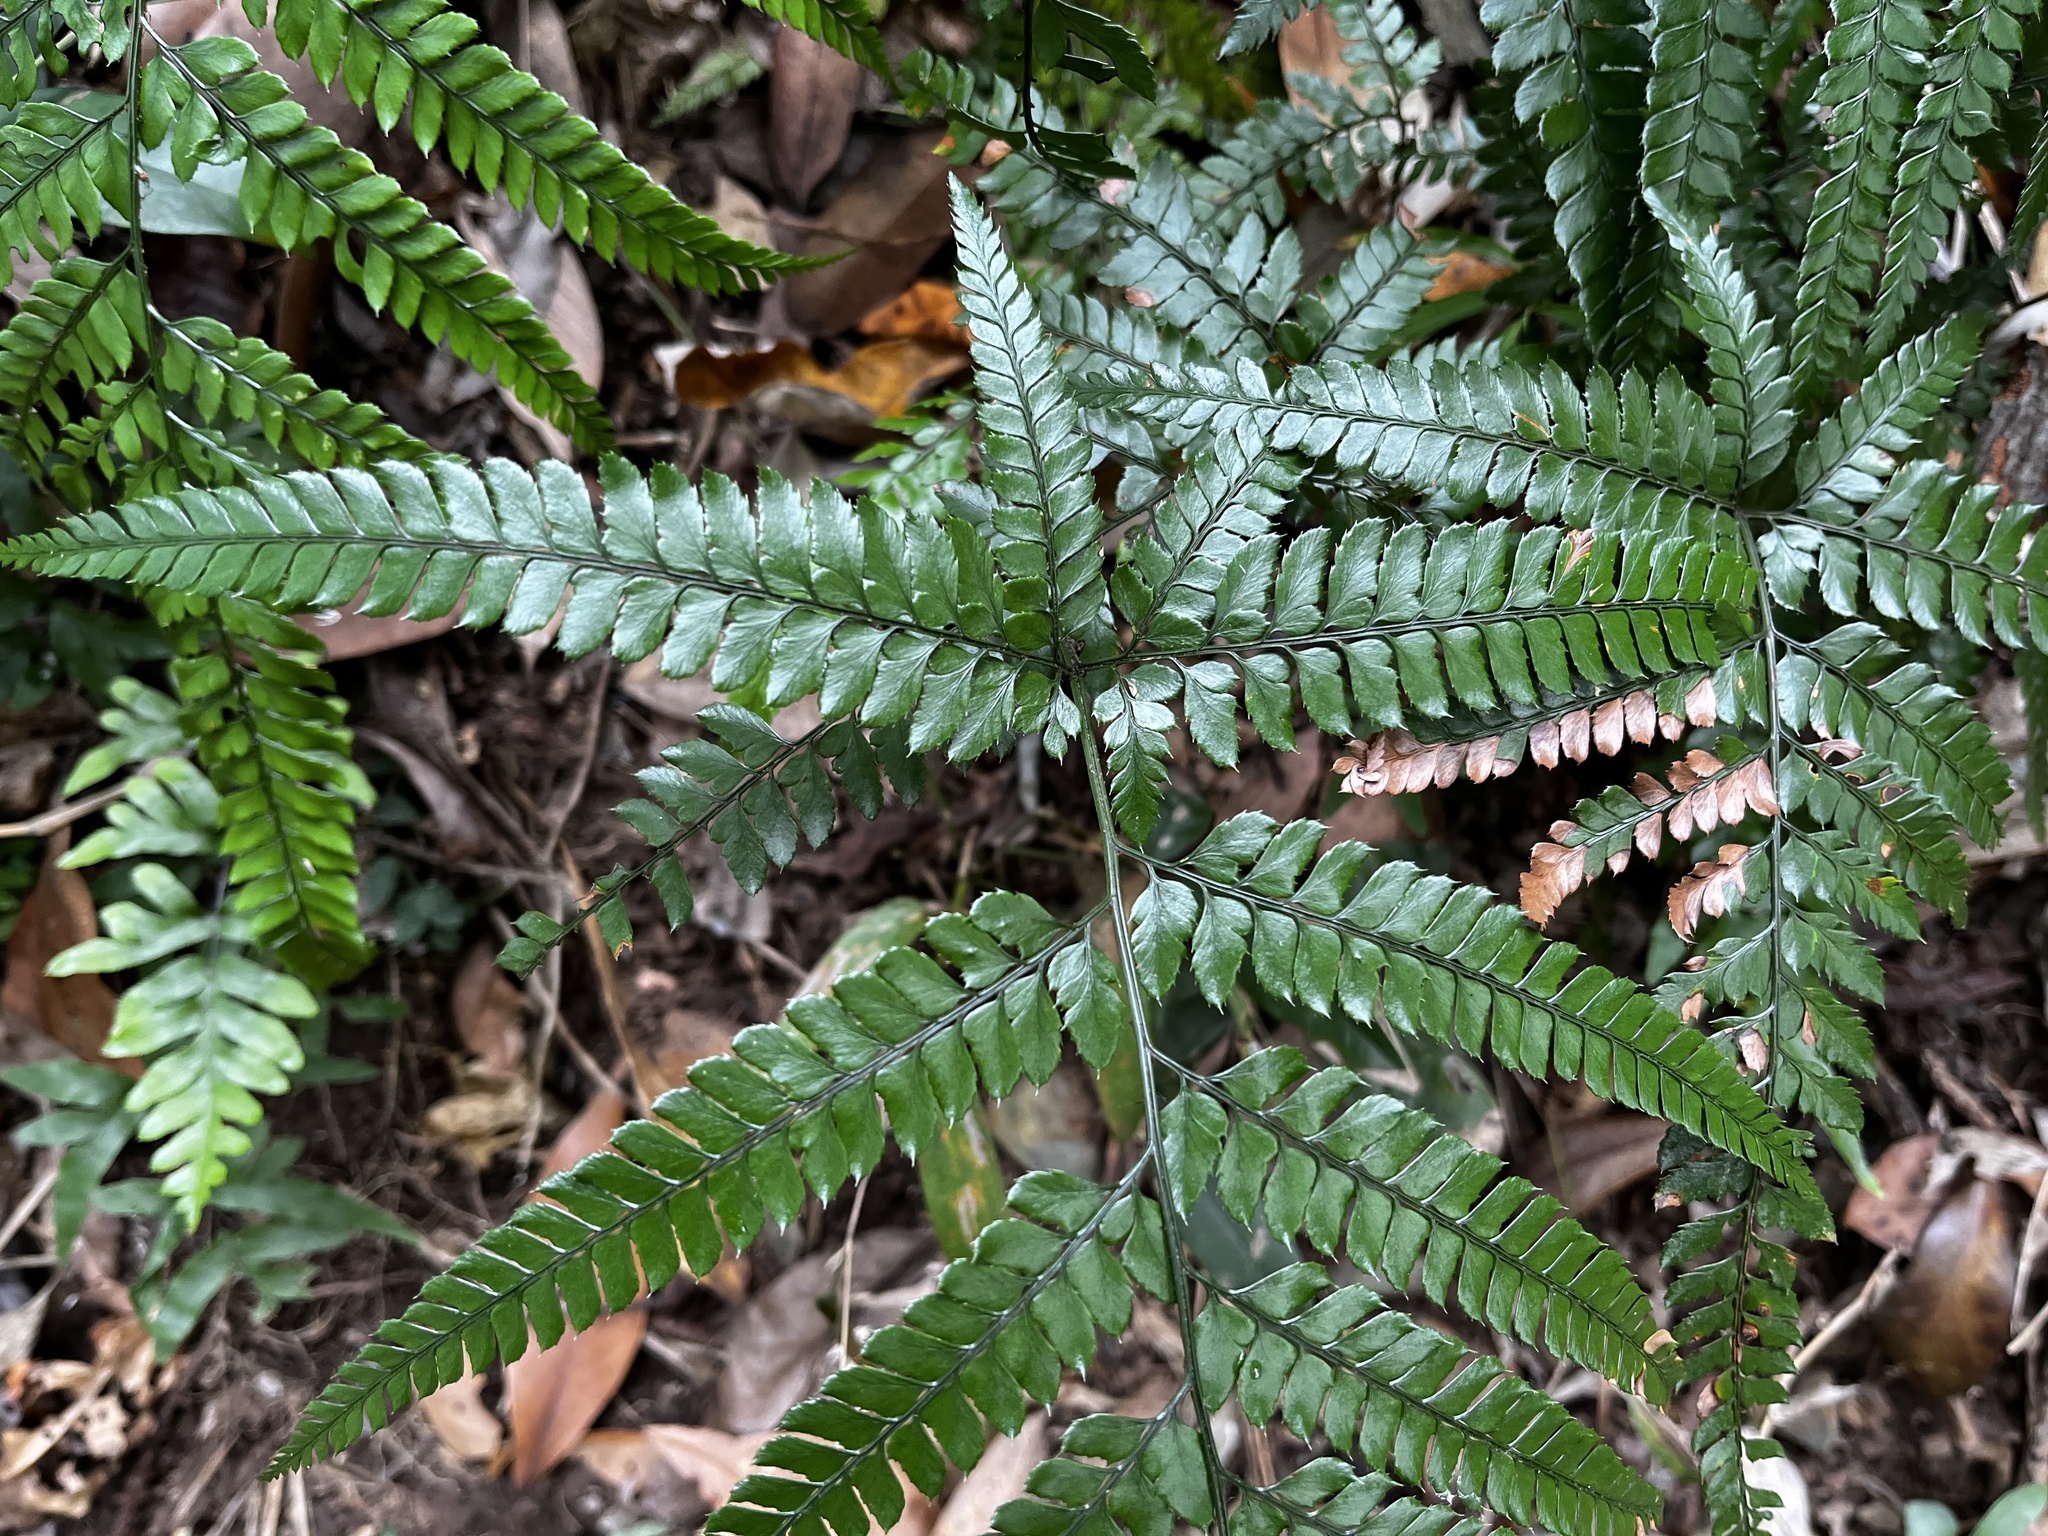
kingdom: Plantae
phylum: Tracheophyta
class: Polypodiopsida
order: Polypodiales
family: Dryopteridaceae
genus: Arachniodes
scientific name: Arachniodes aristata
